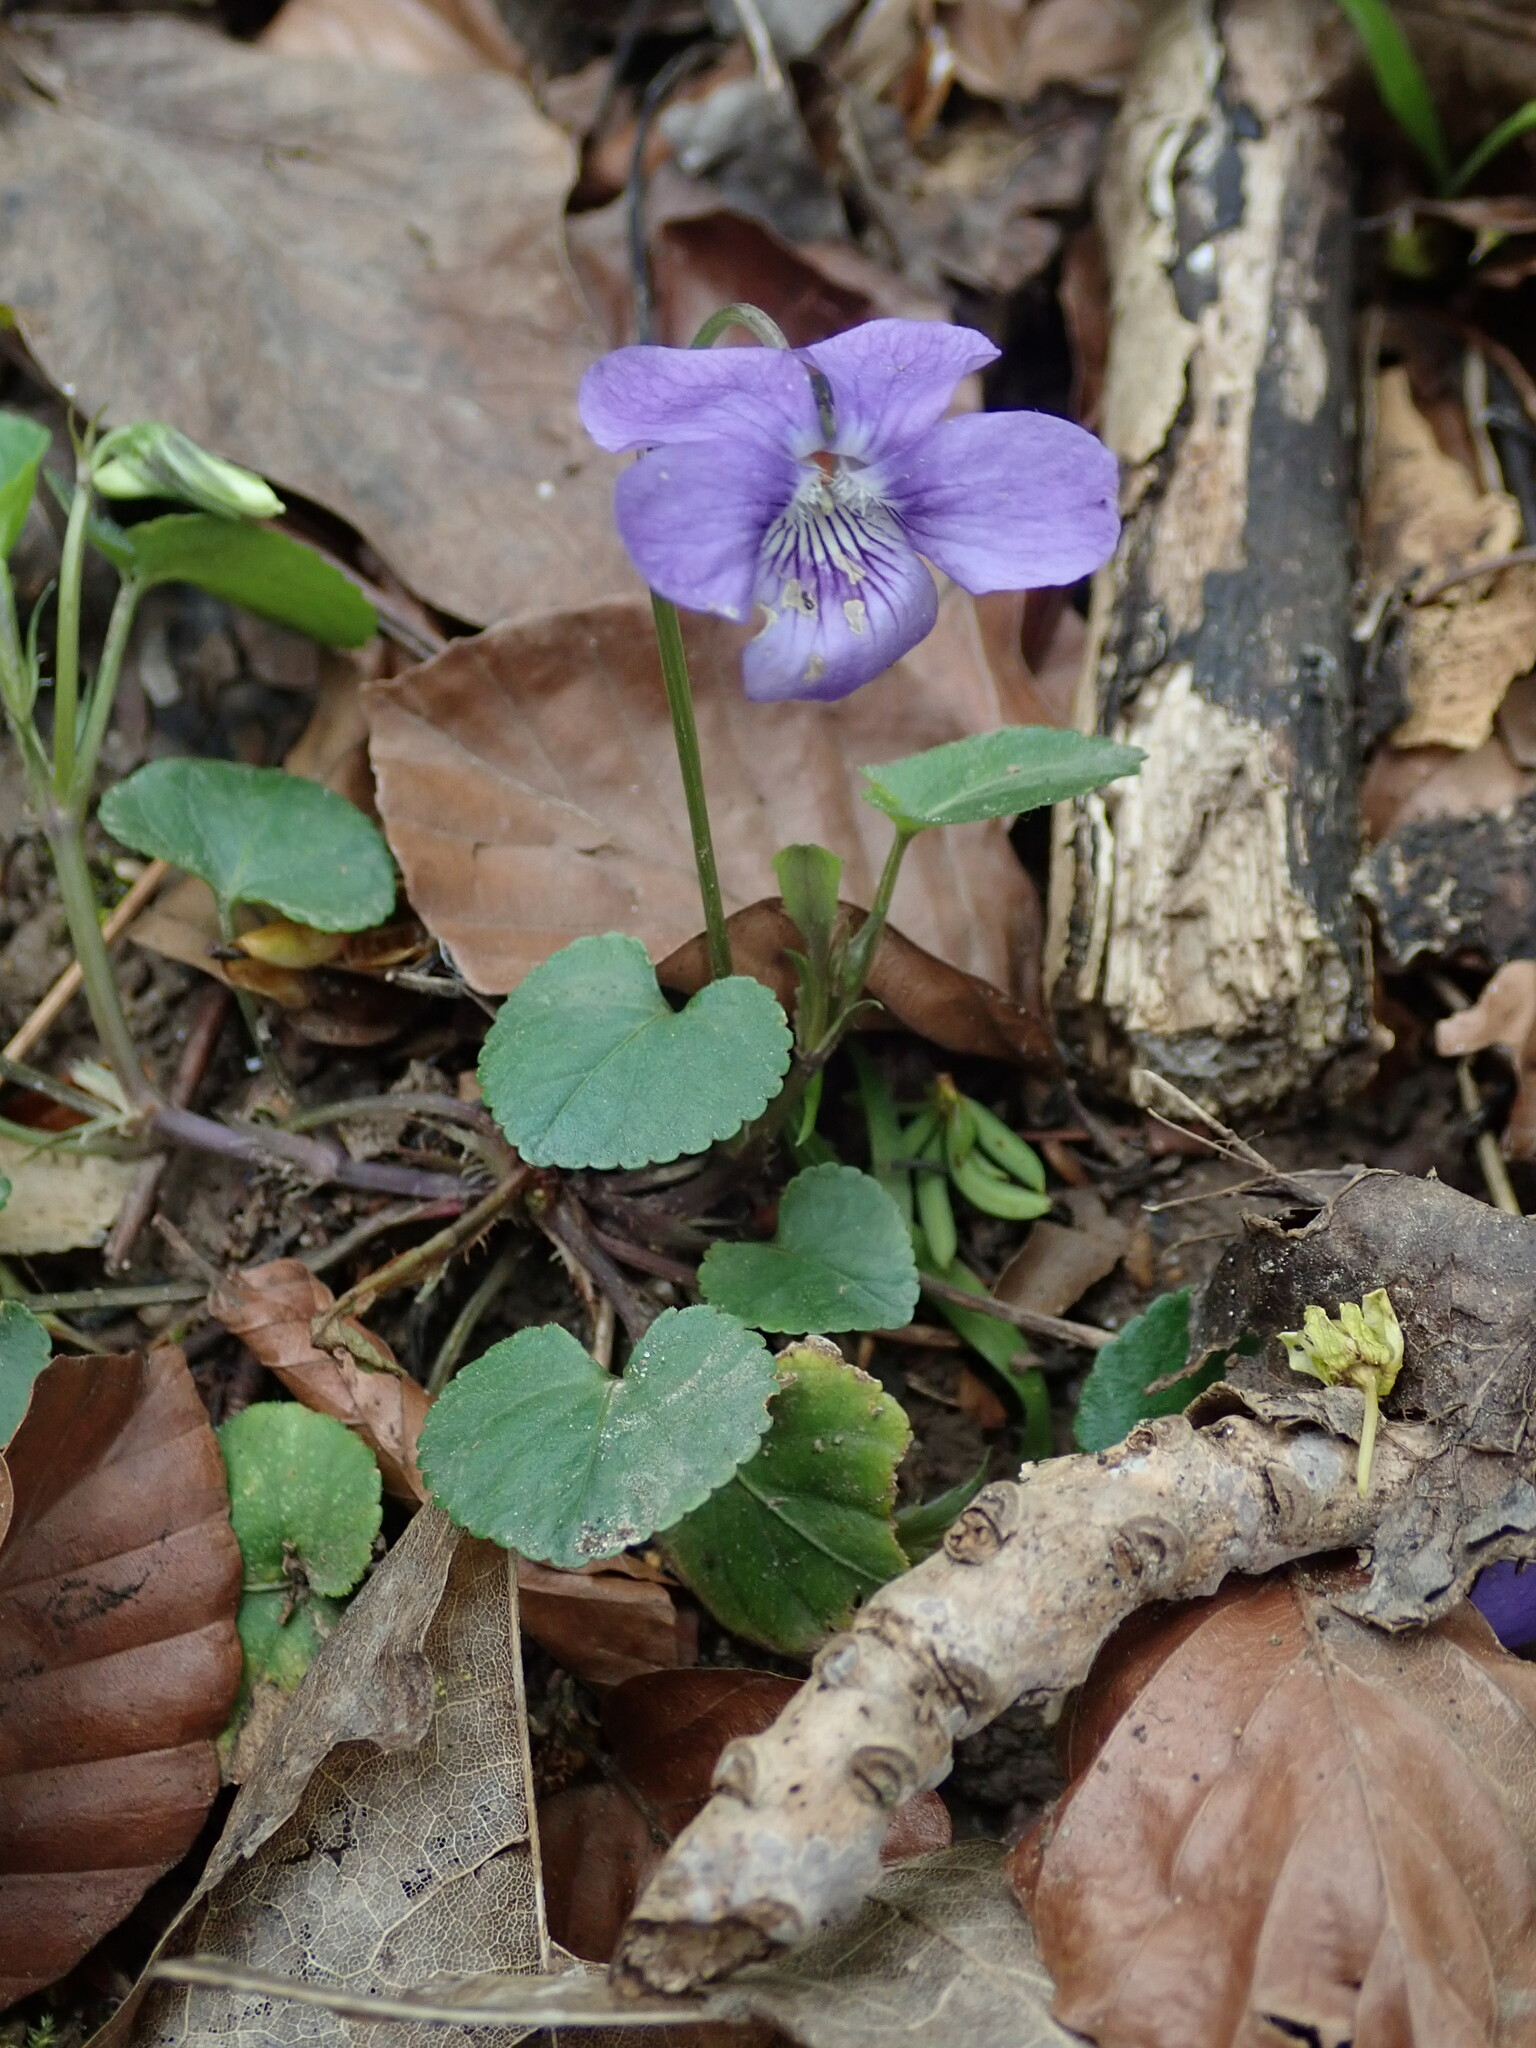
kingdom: Plantae
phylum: Tracheophyta
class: Magnoliopsida
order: Malpighiales
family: Violaceae
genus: Viola
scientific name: Viola riviniana
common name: Common dog-violet
